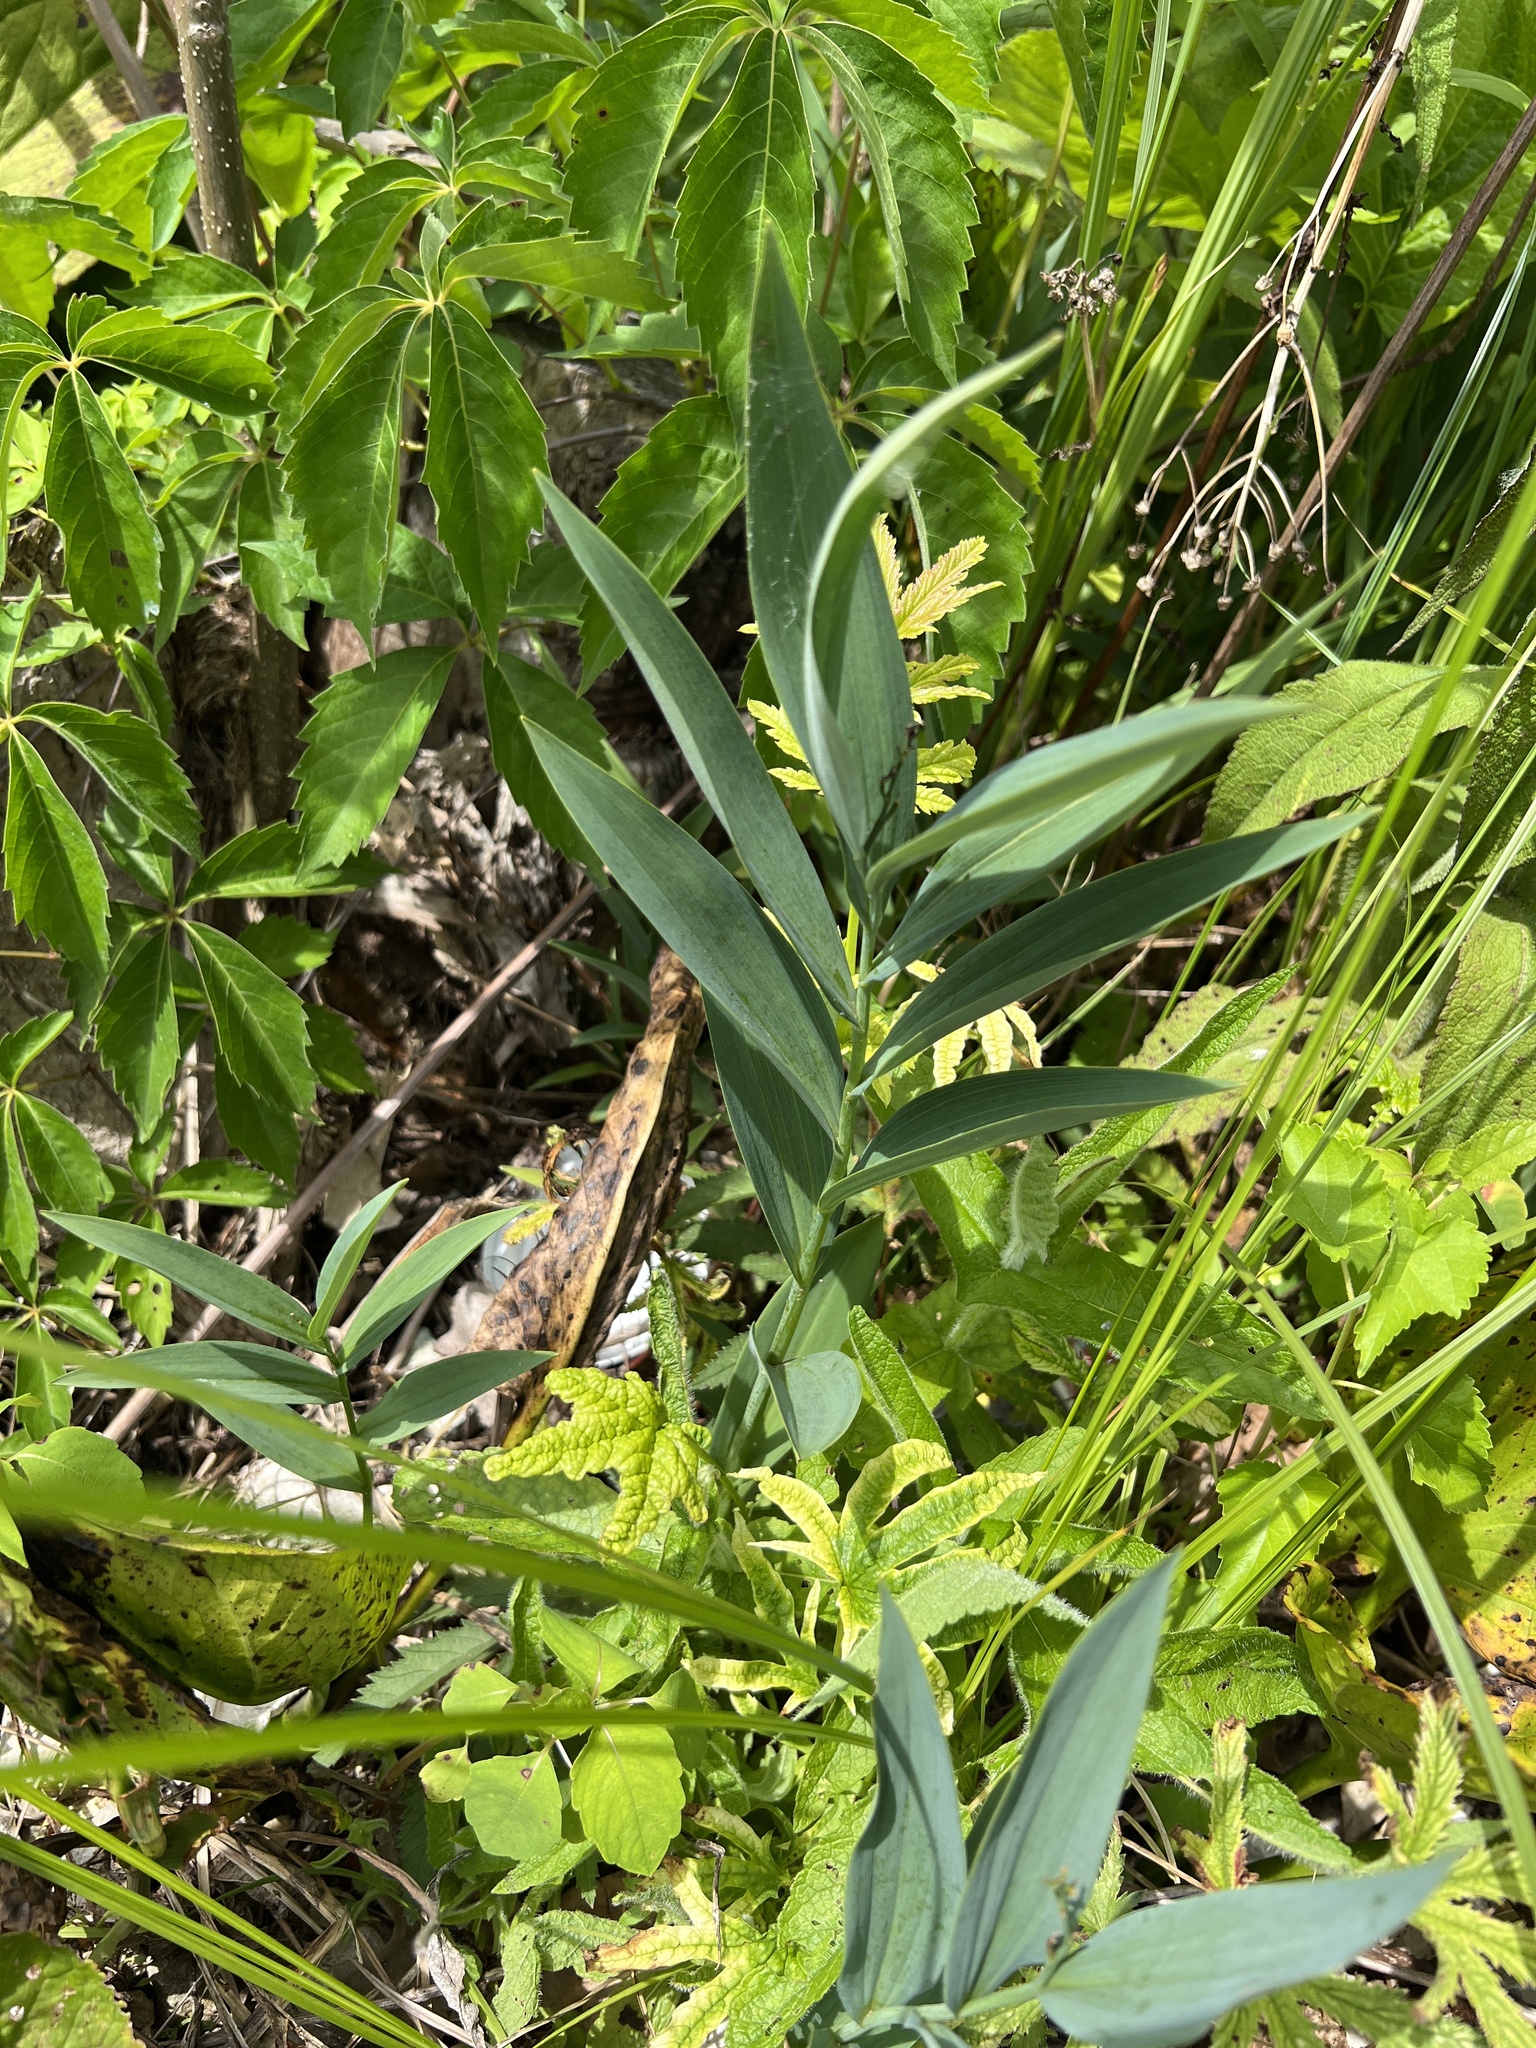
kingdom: Plantae
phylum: Tracheophyta
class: Liliopsida
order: Asparagales
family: Asparagaceae
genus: Maianthemum
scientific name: Maianthemum stellatum
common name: Little false solomon's seal
